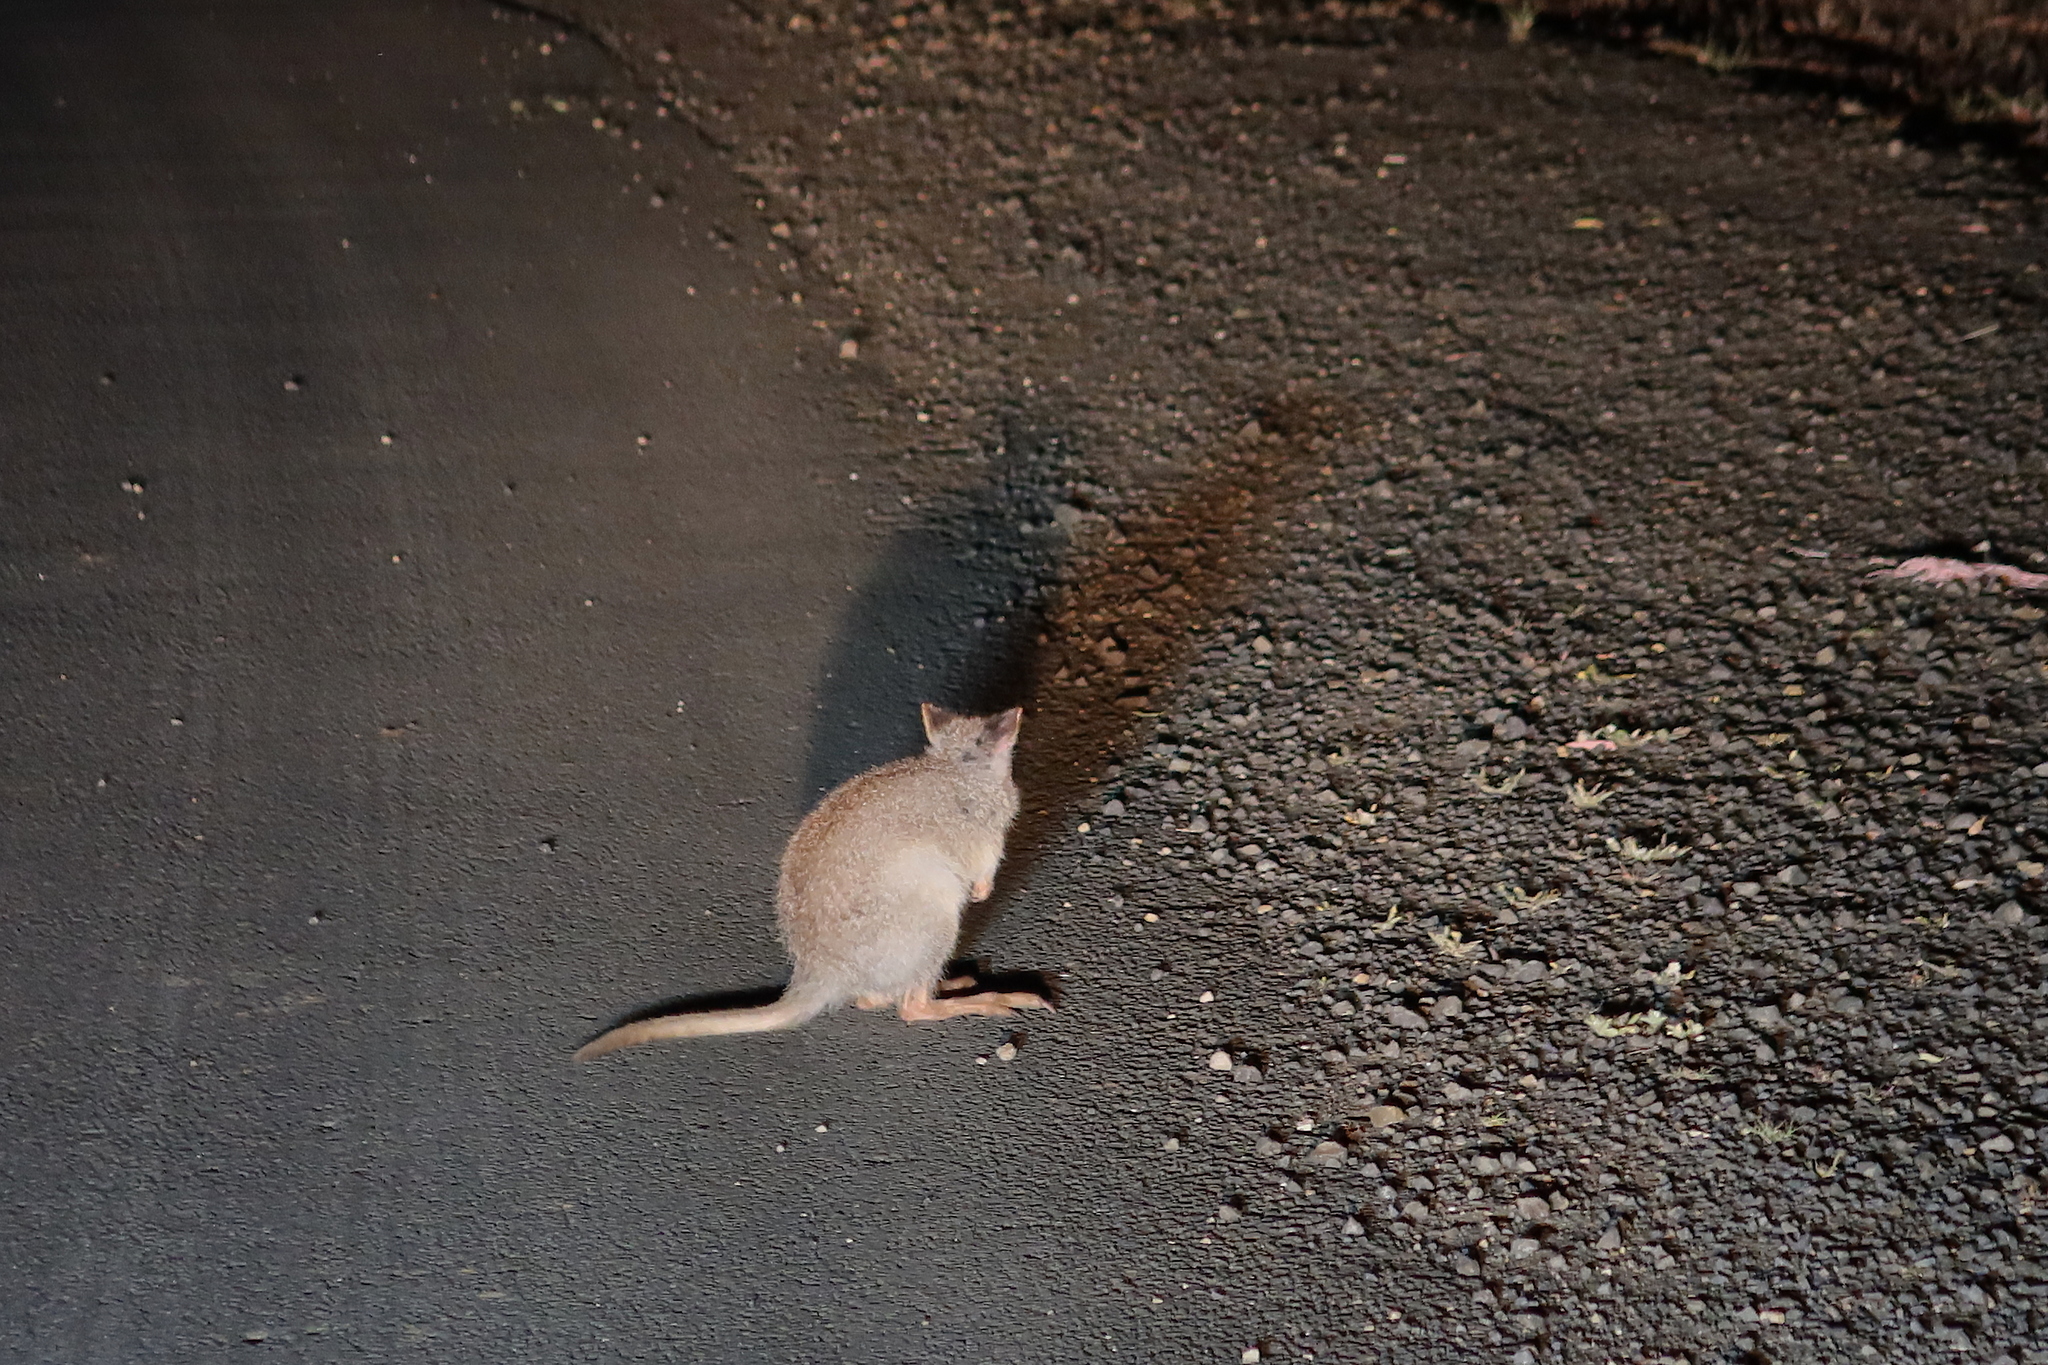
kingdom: Animalia
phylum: Chordata
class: Mammalia
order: Diprotodontia
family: Potoroidae
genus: Aepyprymnus
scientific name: Aepyprymnus rufescens
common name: Rufous rat-kangaroo
